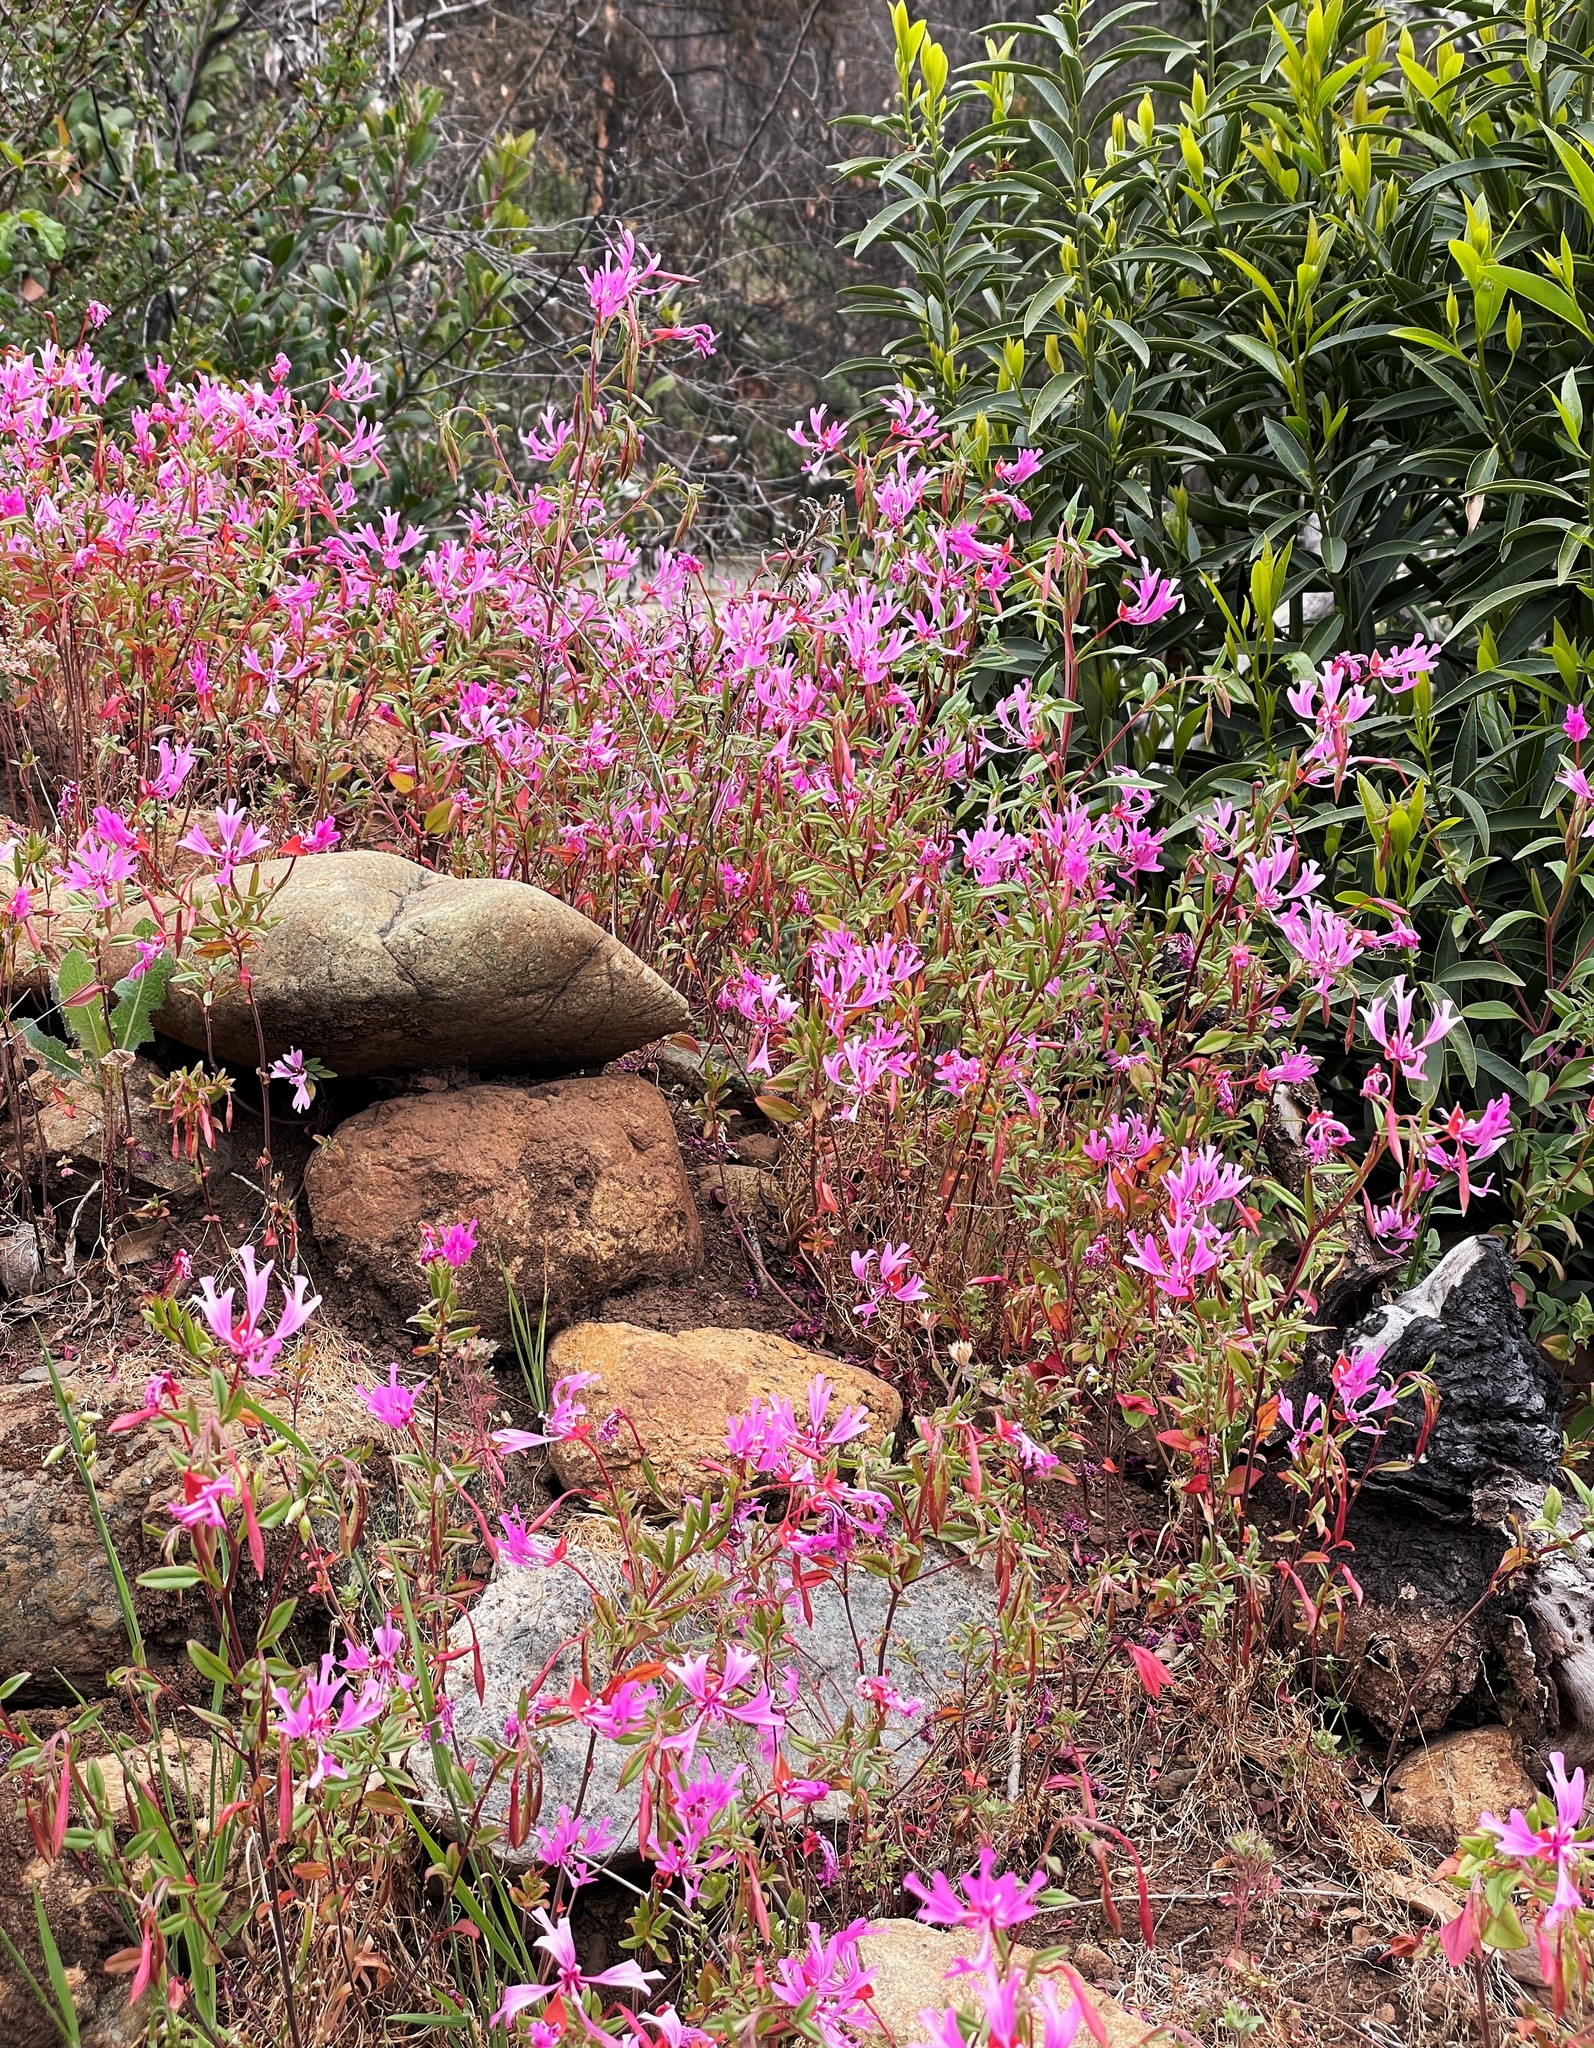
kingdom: Plantae
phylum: Tracheophyta
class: Magnoliopsida
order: Myrtales
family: Onagraceae
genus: Clarkia
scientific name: Clarkia concinna
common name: Red-ribbons
